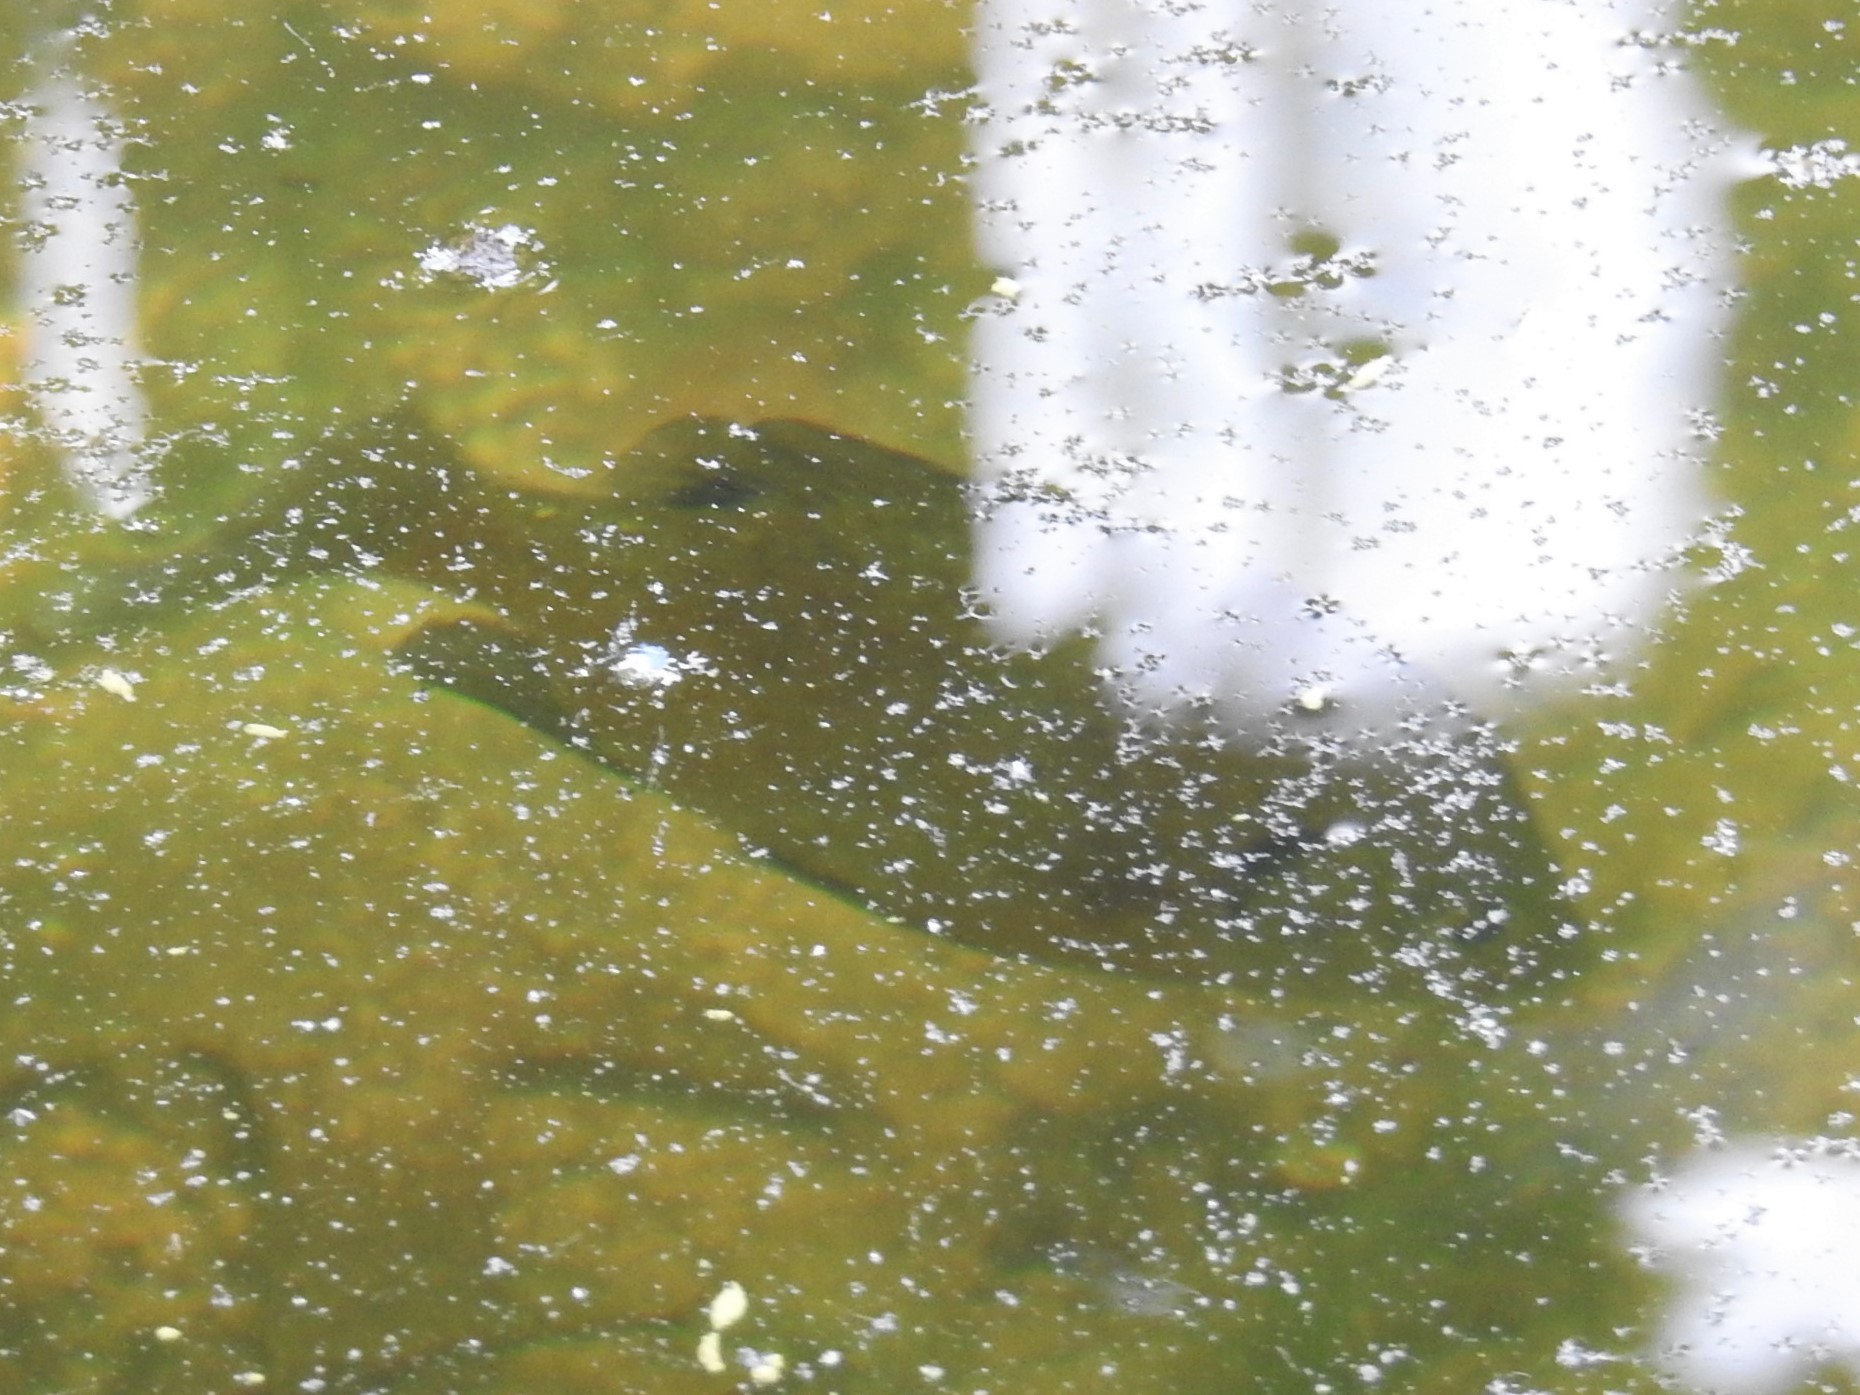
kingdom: Animalia
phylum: Chordata
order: Perciformes
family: Centrarchidae
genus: Lepomis
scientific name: Lepomis macrochirus
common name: Bluegill
